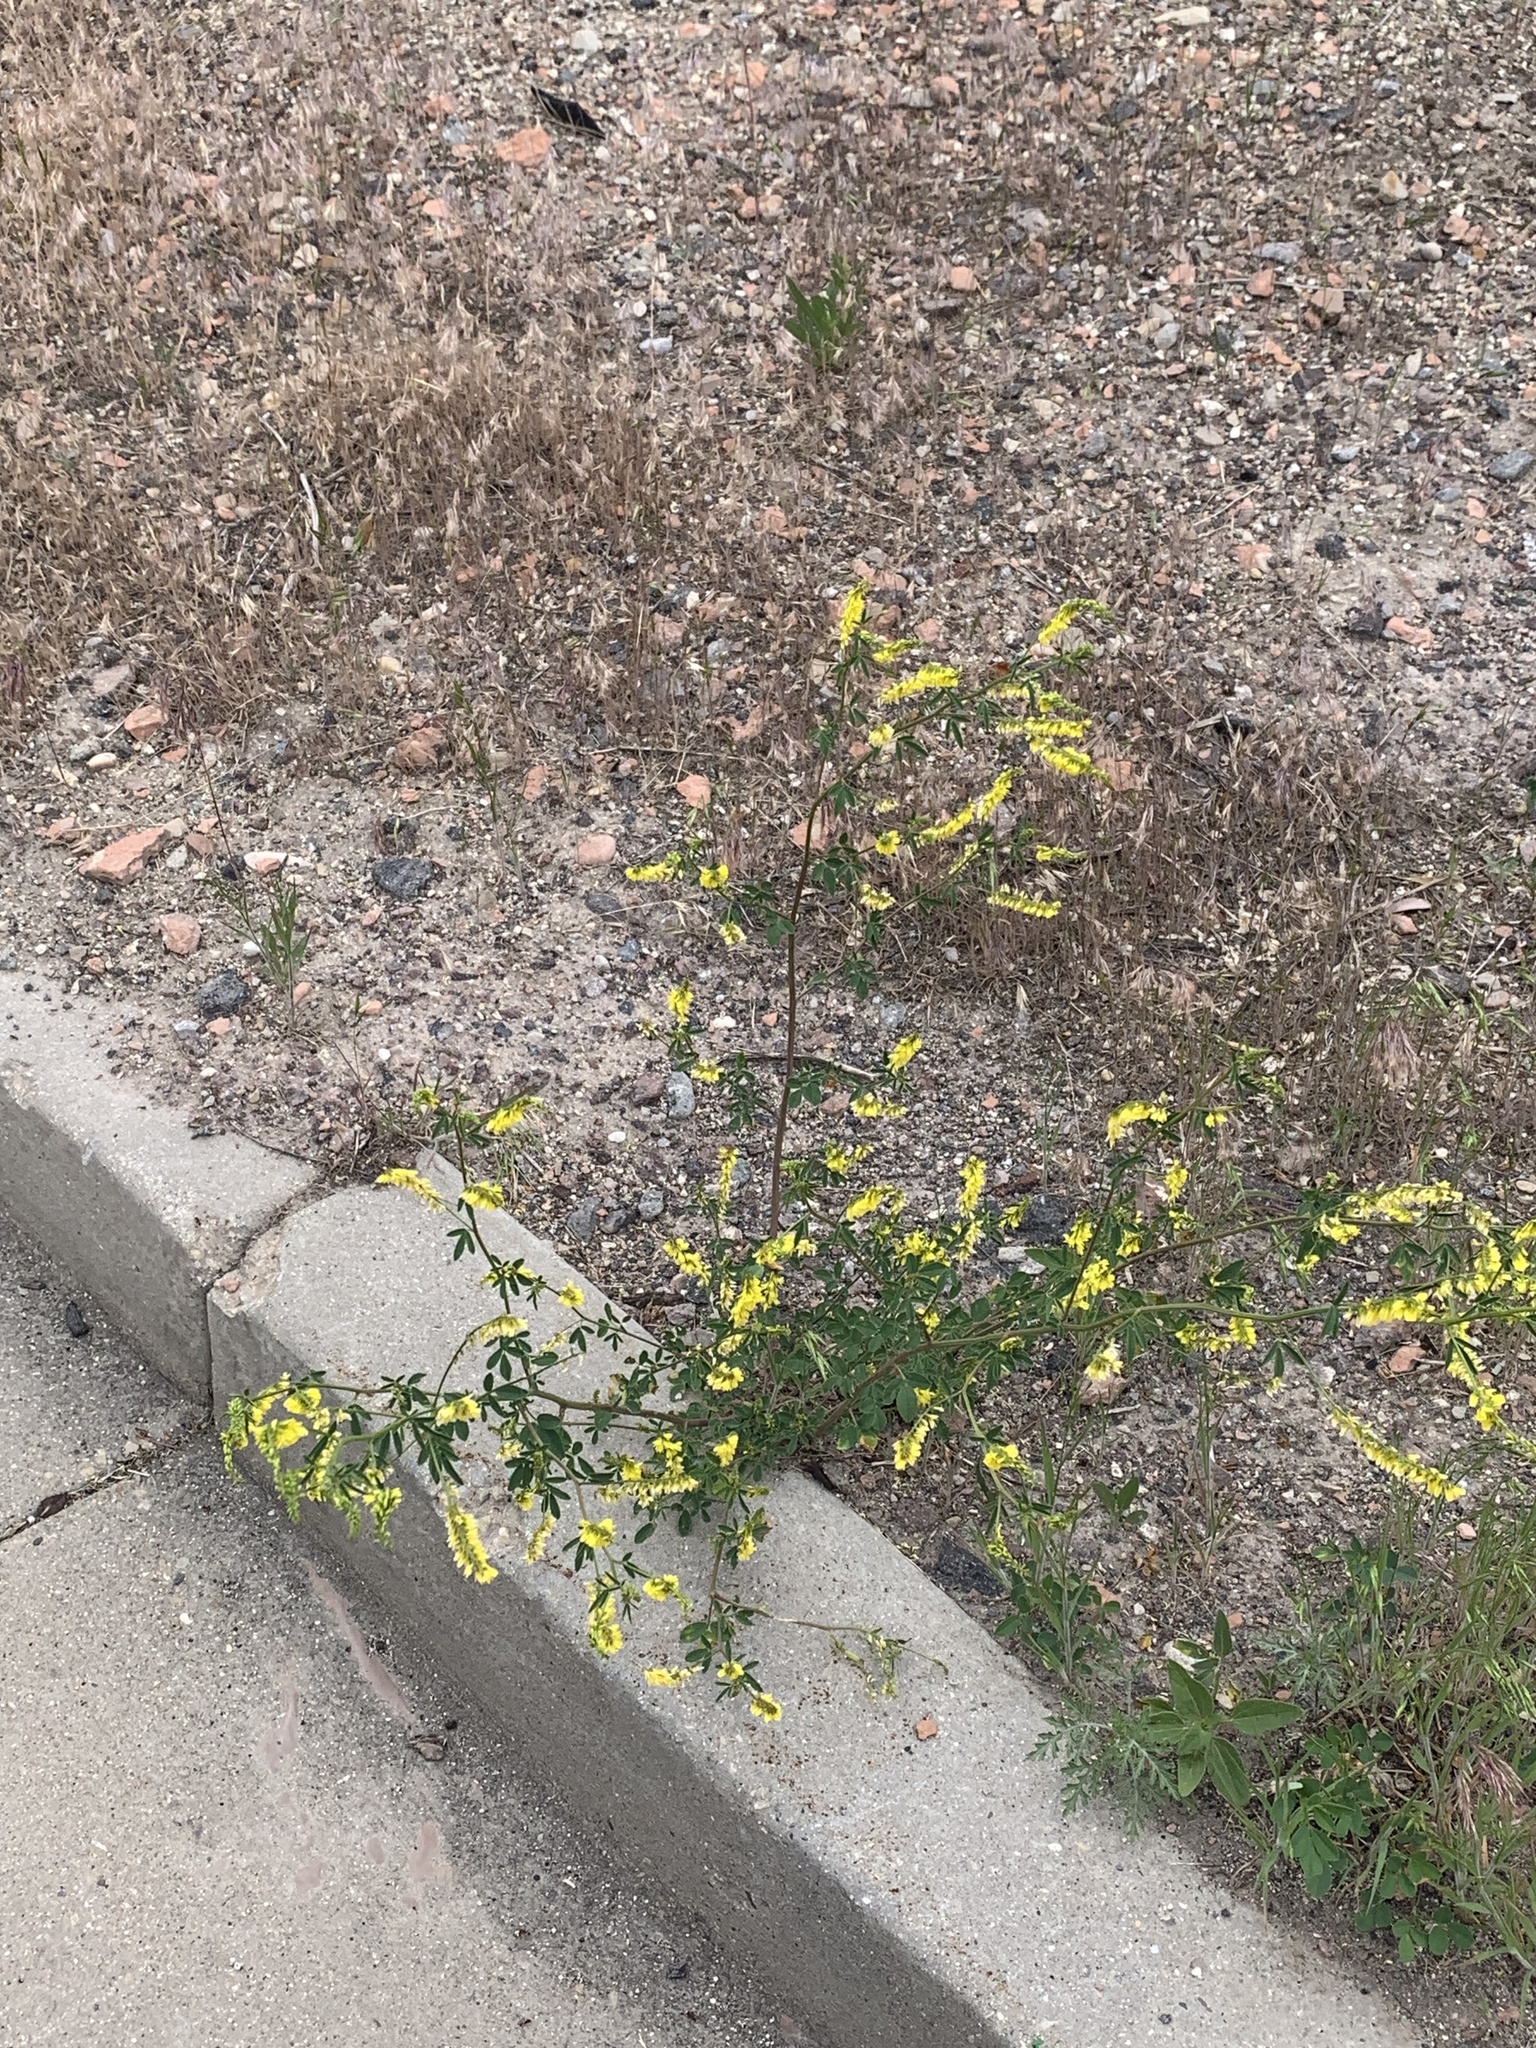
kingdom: Plantae
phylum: Tracheophyta
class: Magnoliopsida
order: Fabales
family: Fabaceae
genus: Melilotus
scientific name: Melilotus officinalis
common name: Sweetclover
